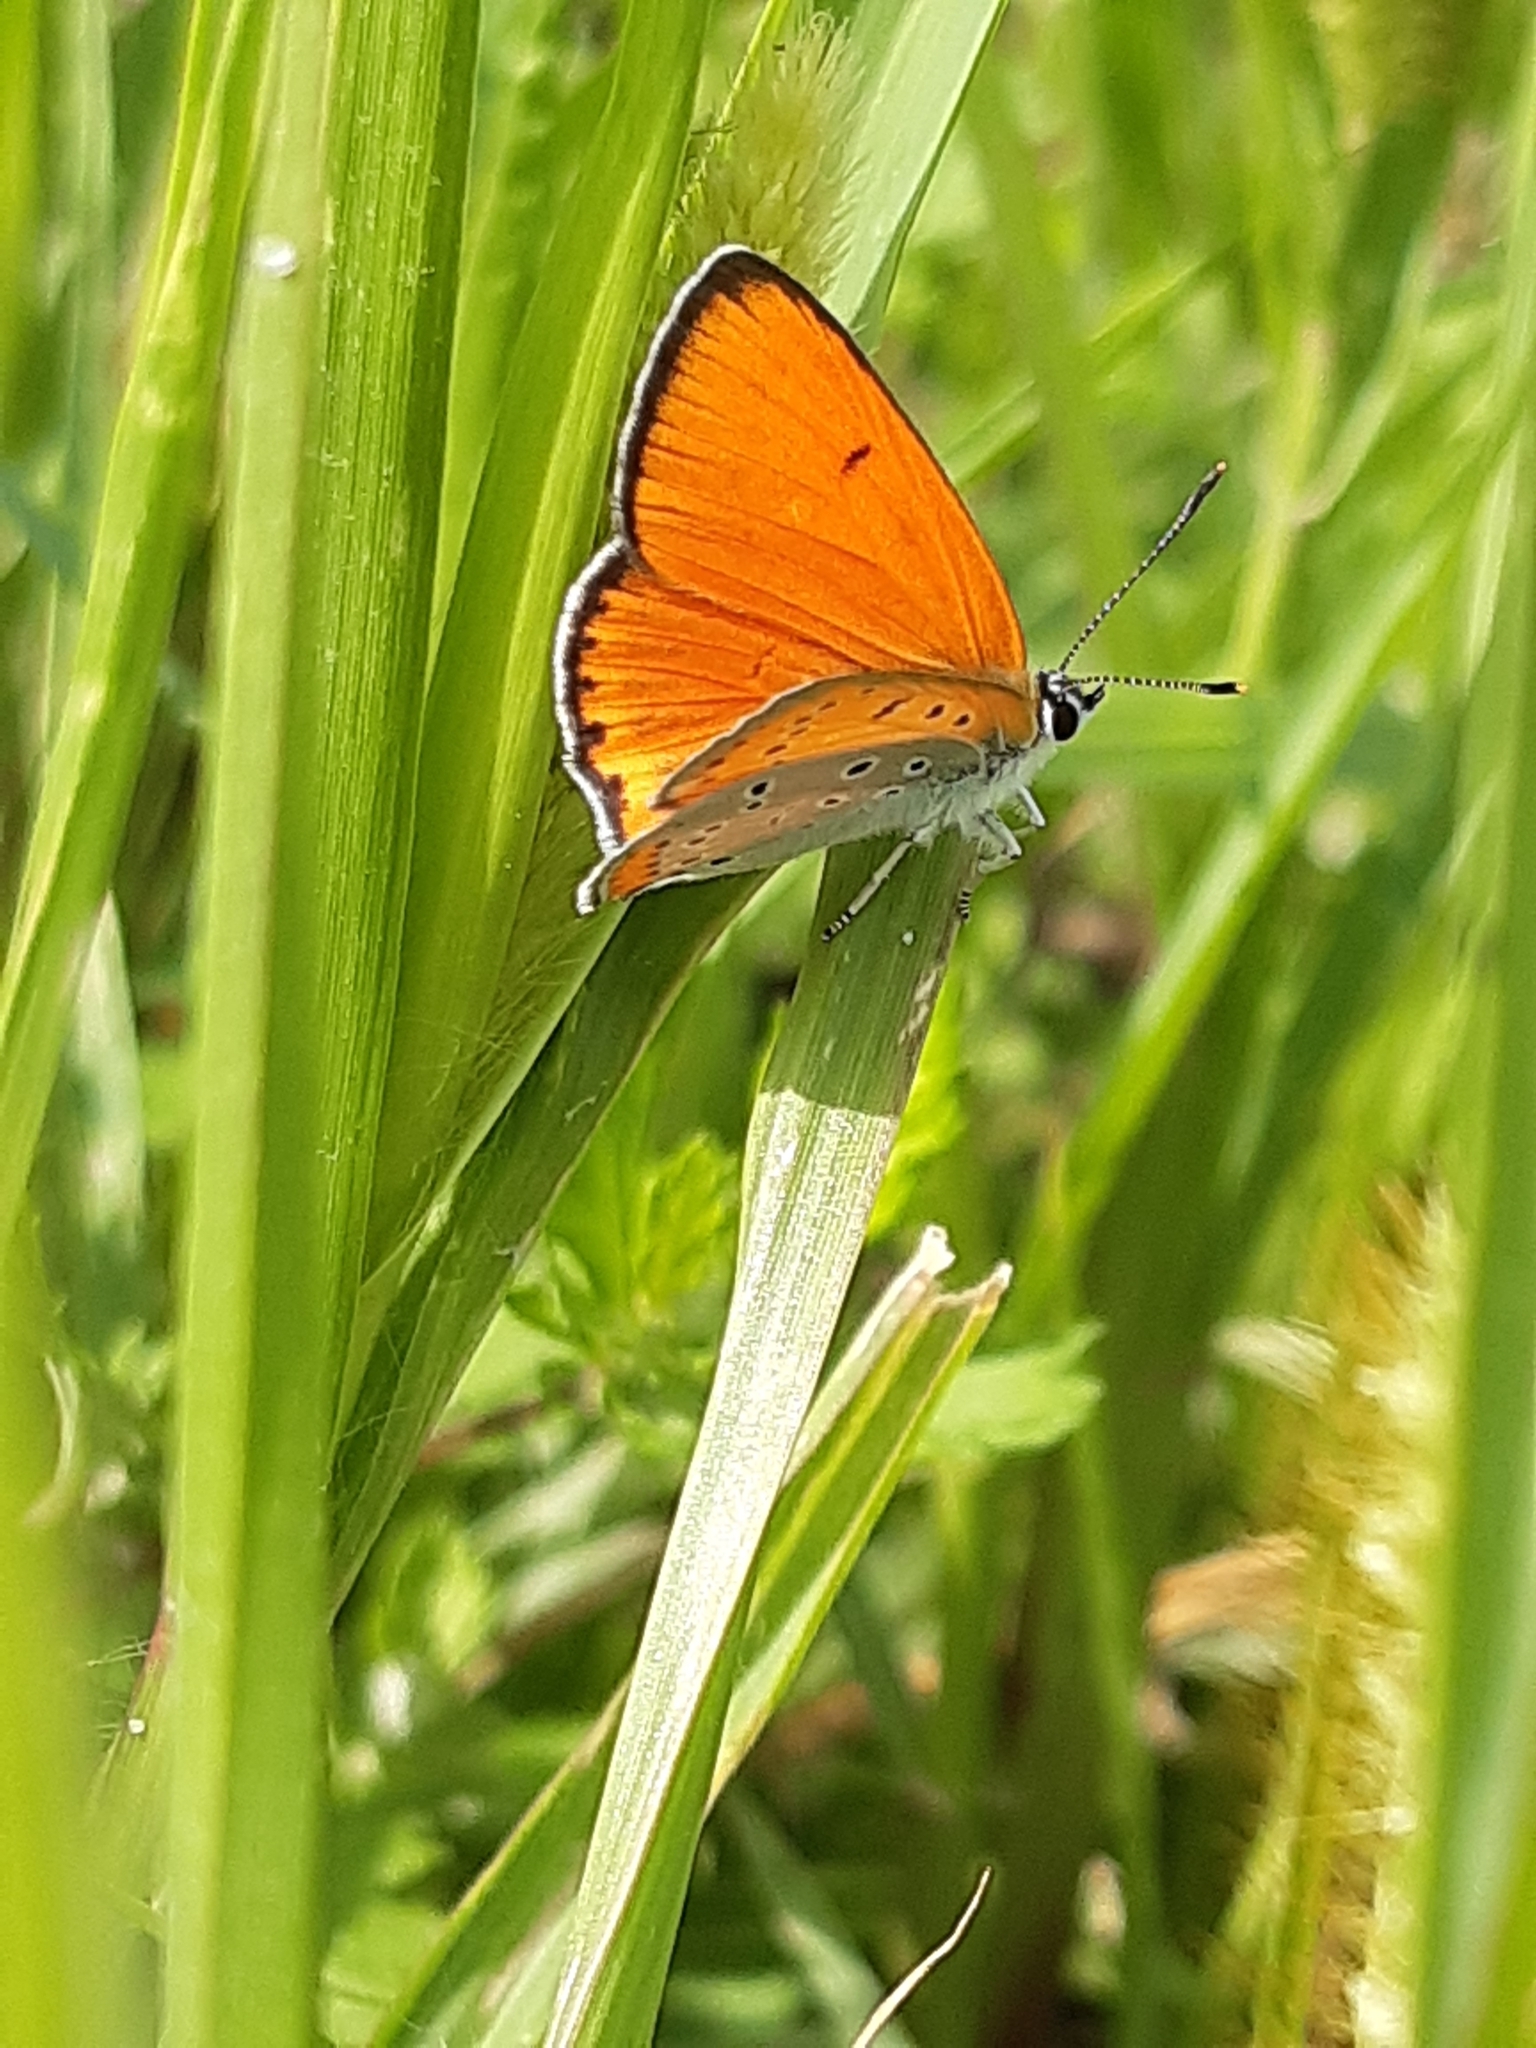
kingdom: Animalia
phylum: Arthropoda
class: Insecta
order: Lepidoptera
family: Lycaenidae
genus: Lycaena
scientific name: Lycaena dispar
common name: Large copper
